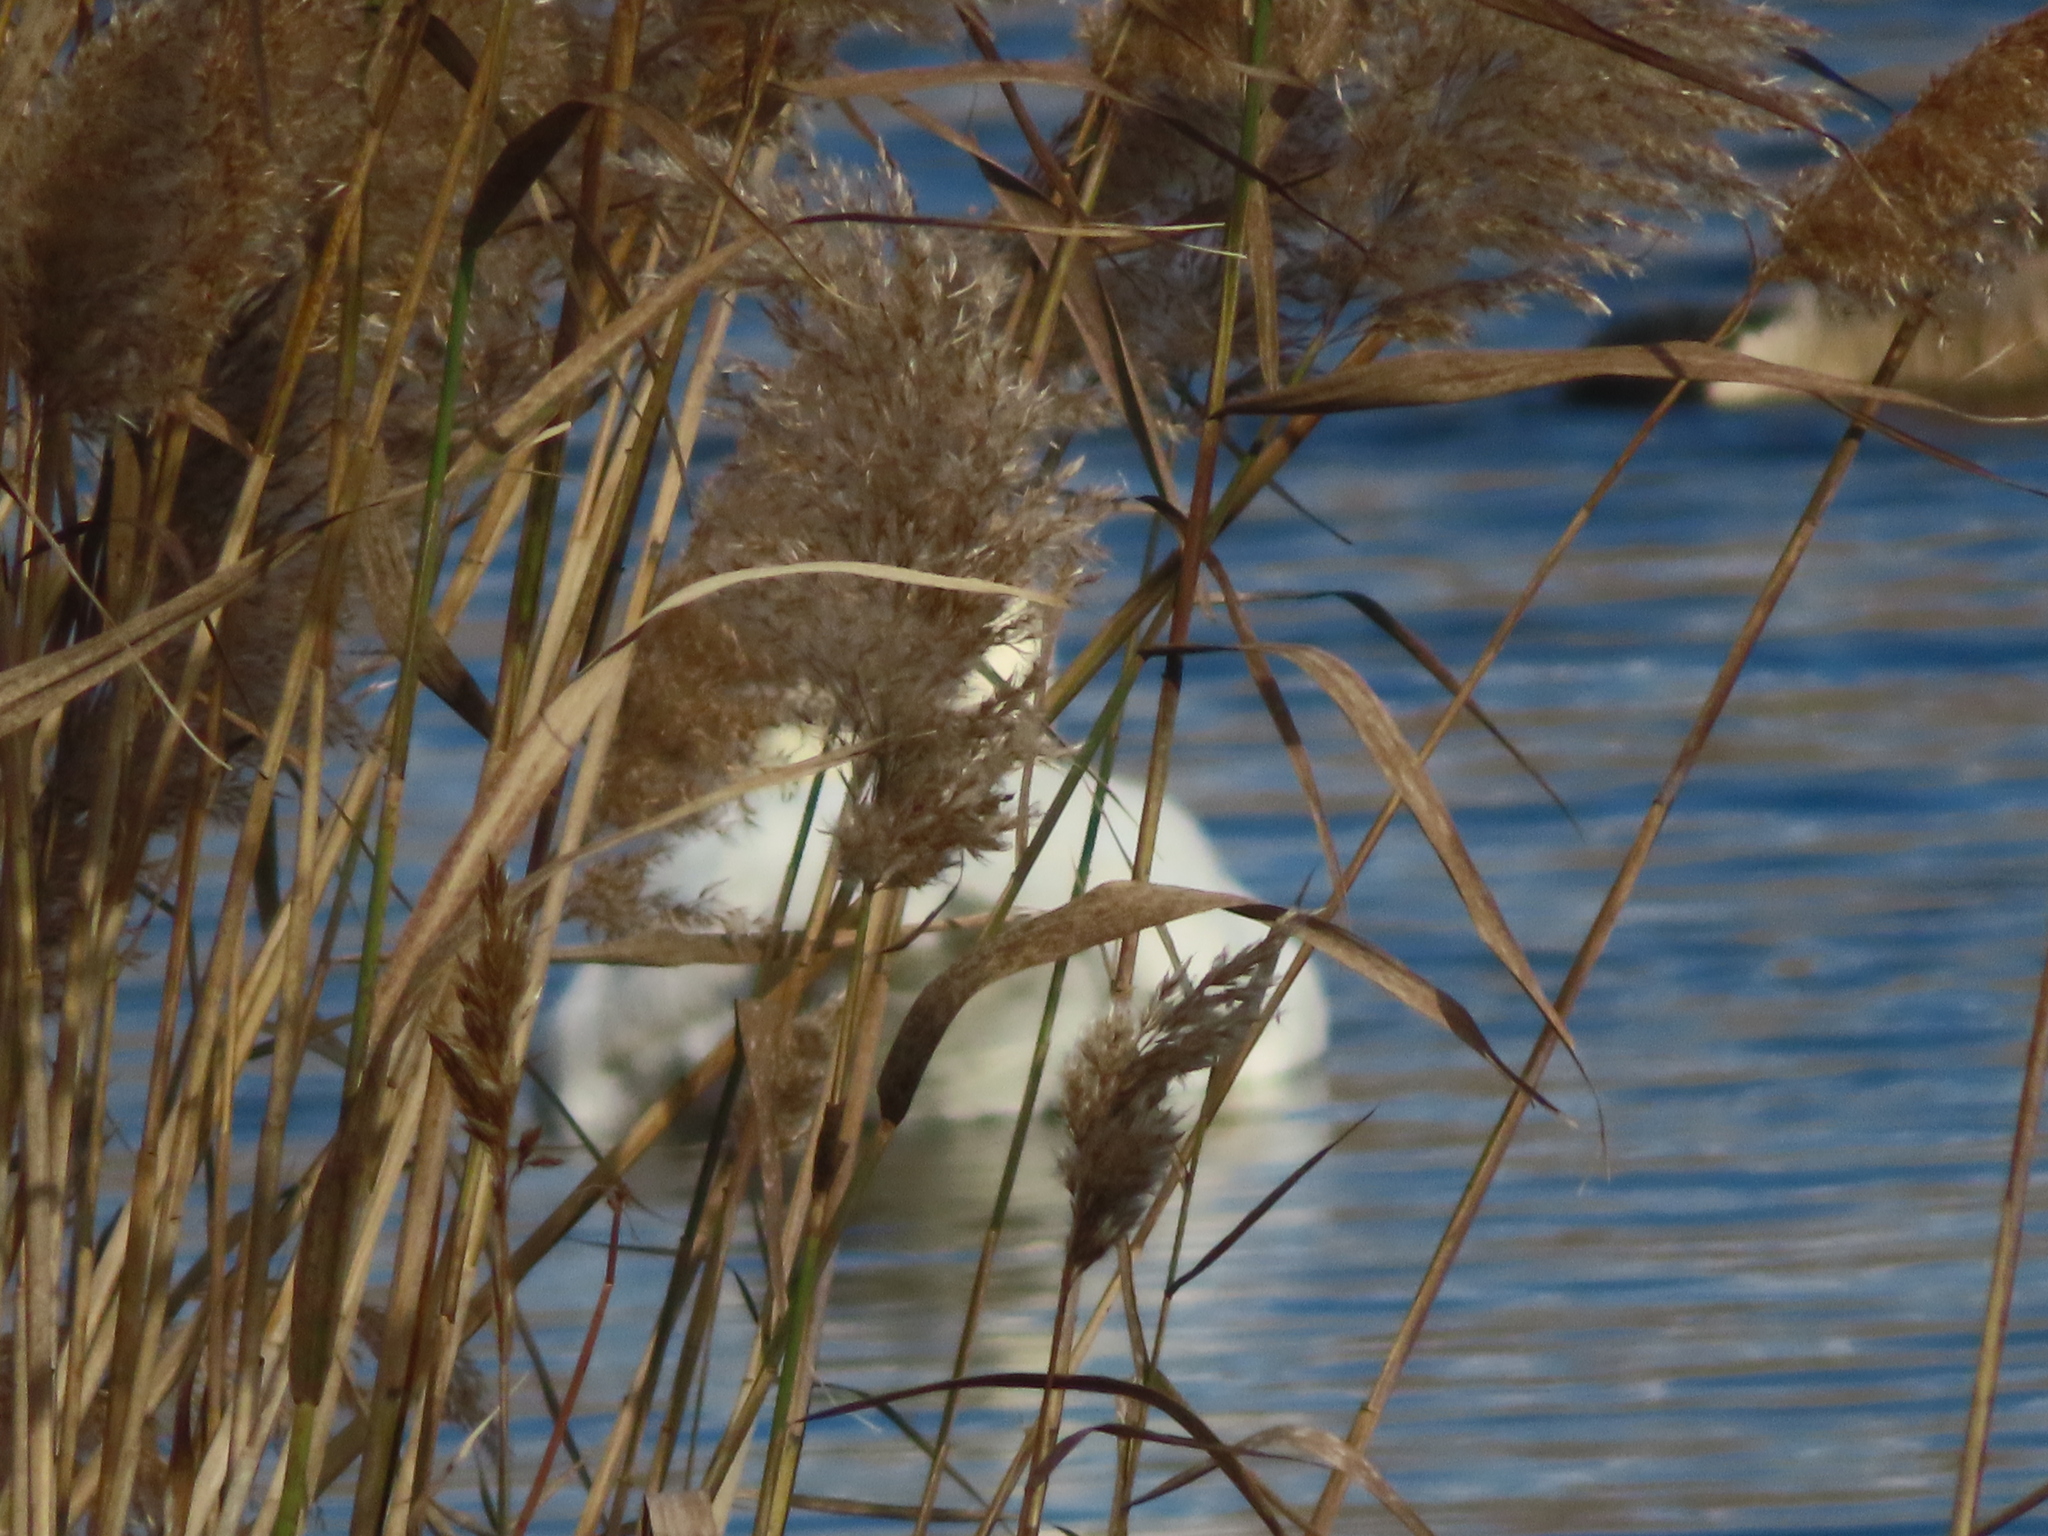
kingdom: Animalia
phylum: Chordata
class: Aves
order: Anseriformes
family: Anatidae
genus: Cygnus
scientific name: Cygnus olor
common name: Mute swan
